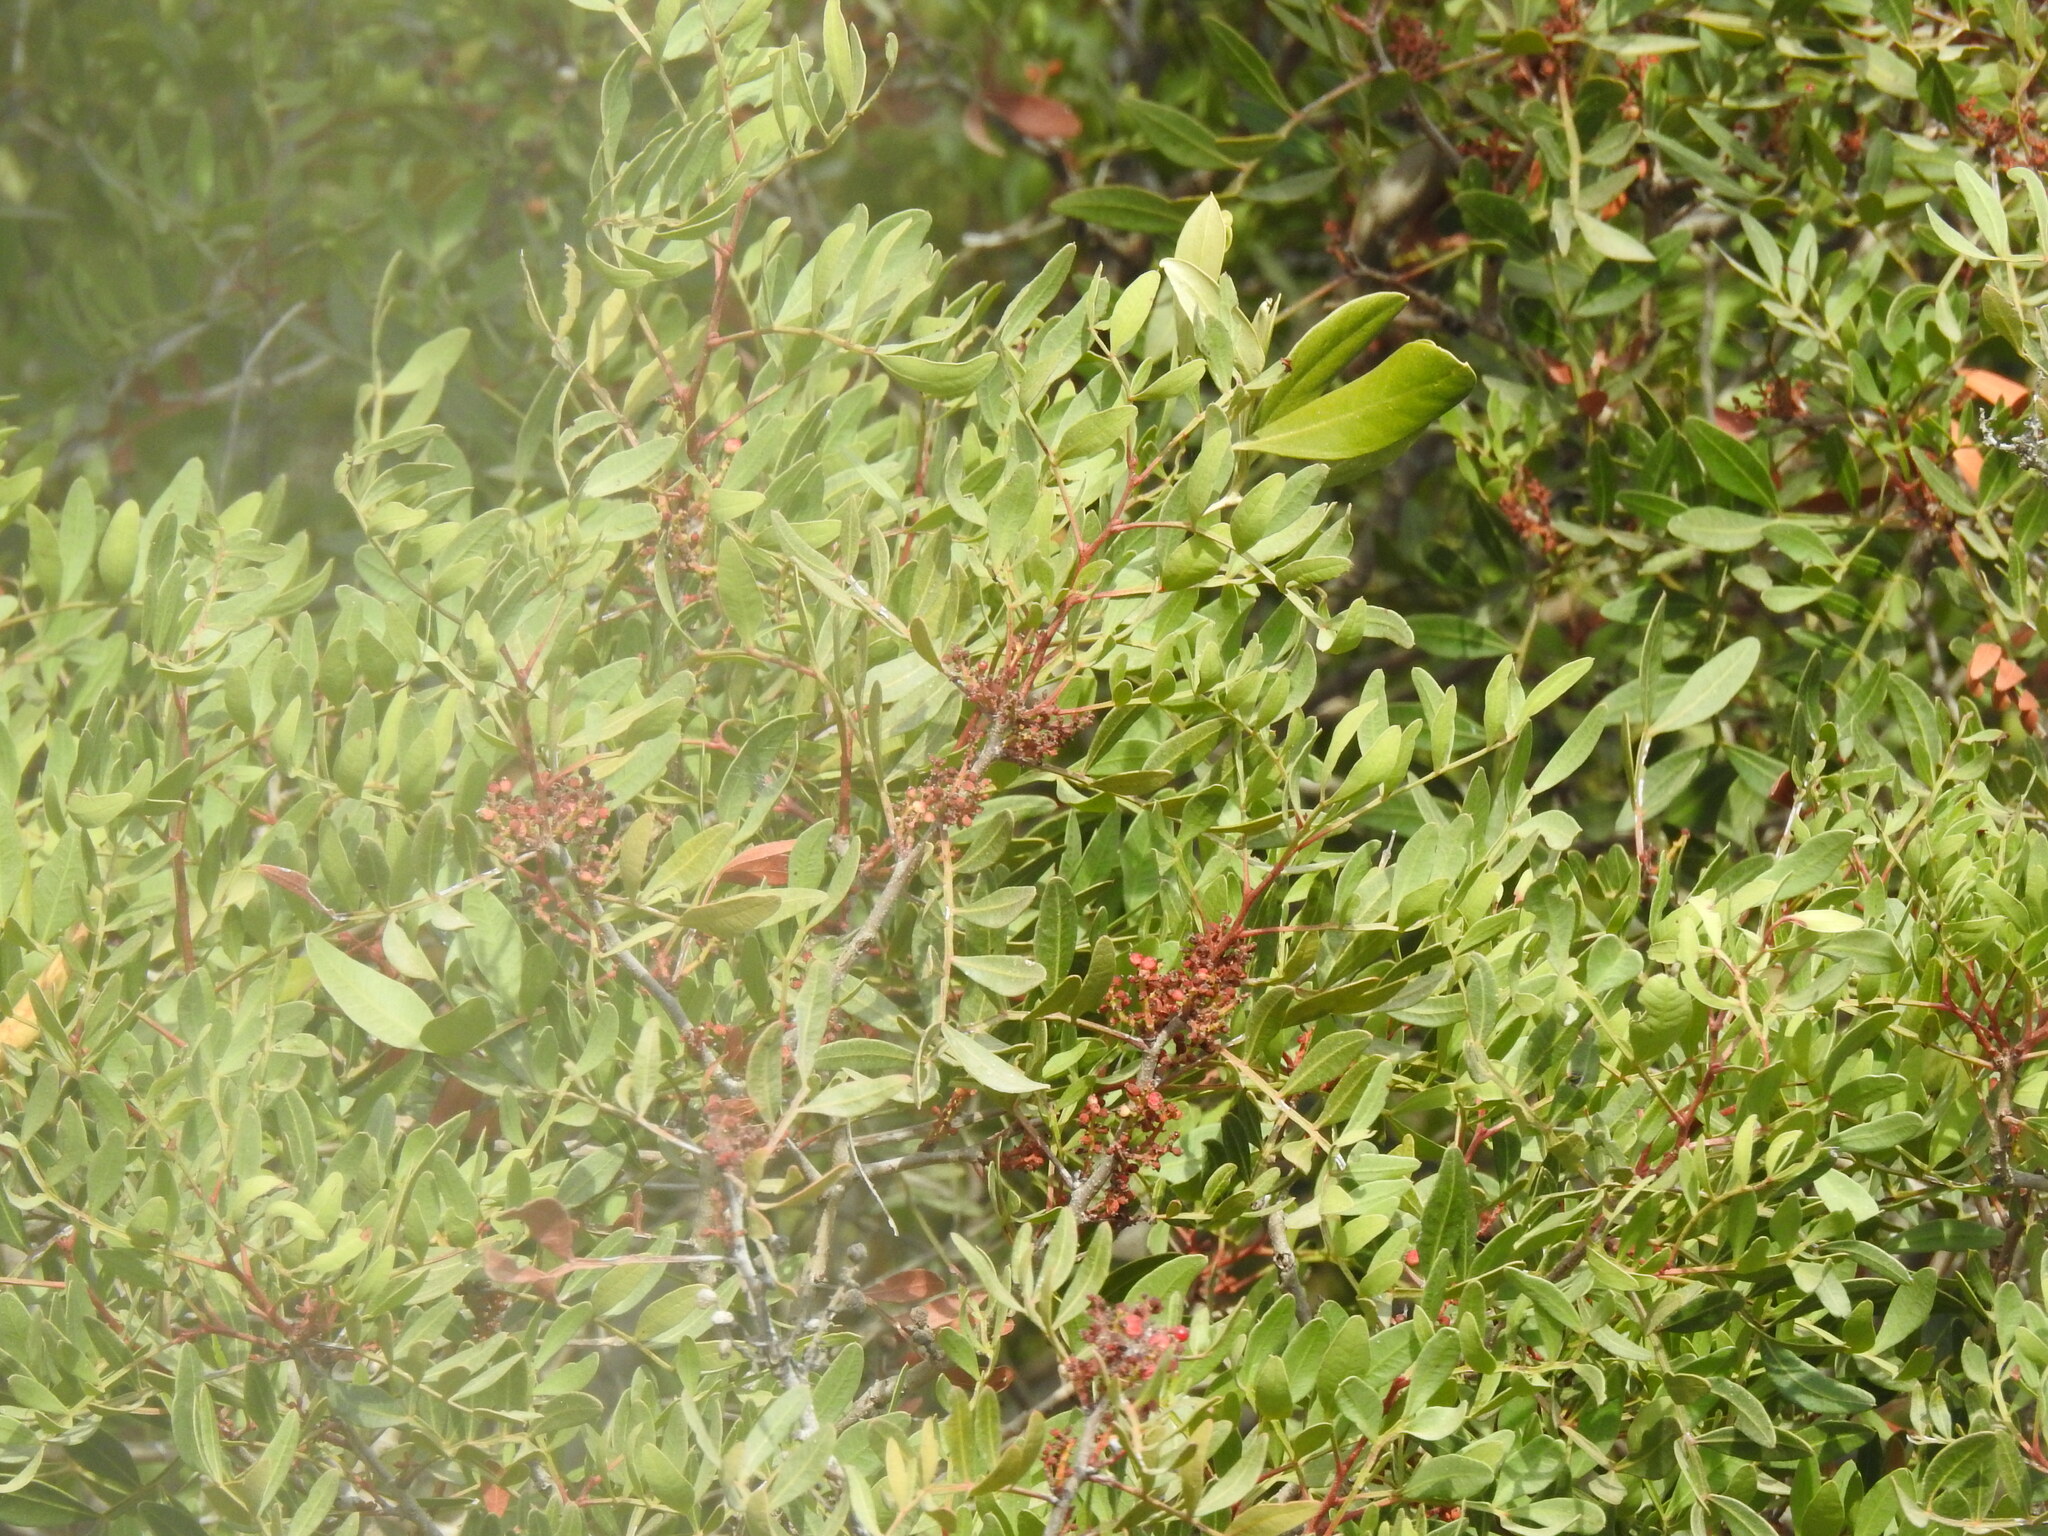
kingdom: Plantae
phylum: Tracheophyta
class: Magnoliopsida
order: Sapindales
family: Anacardiaceae
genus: Pistacia
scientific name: Pistacia lentiscus
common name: Lentisk
